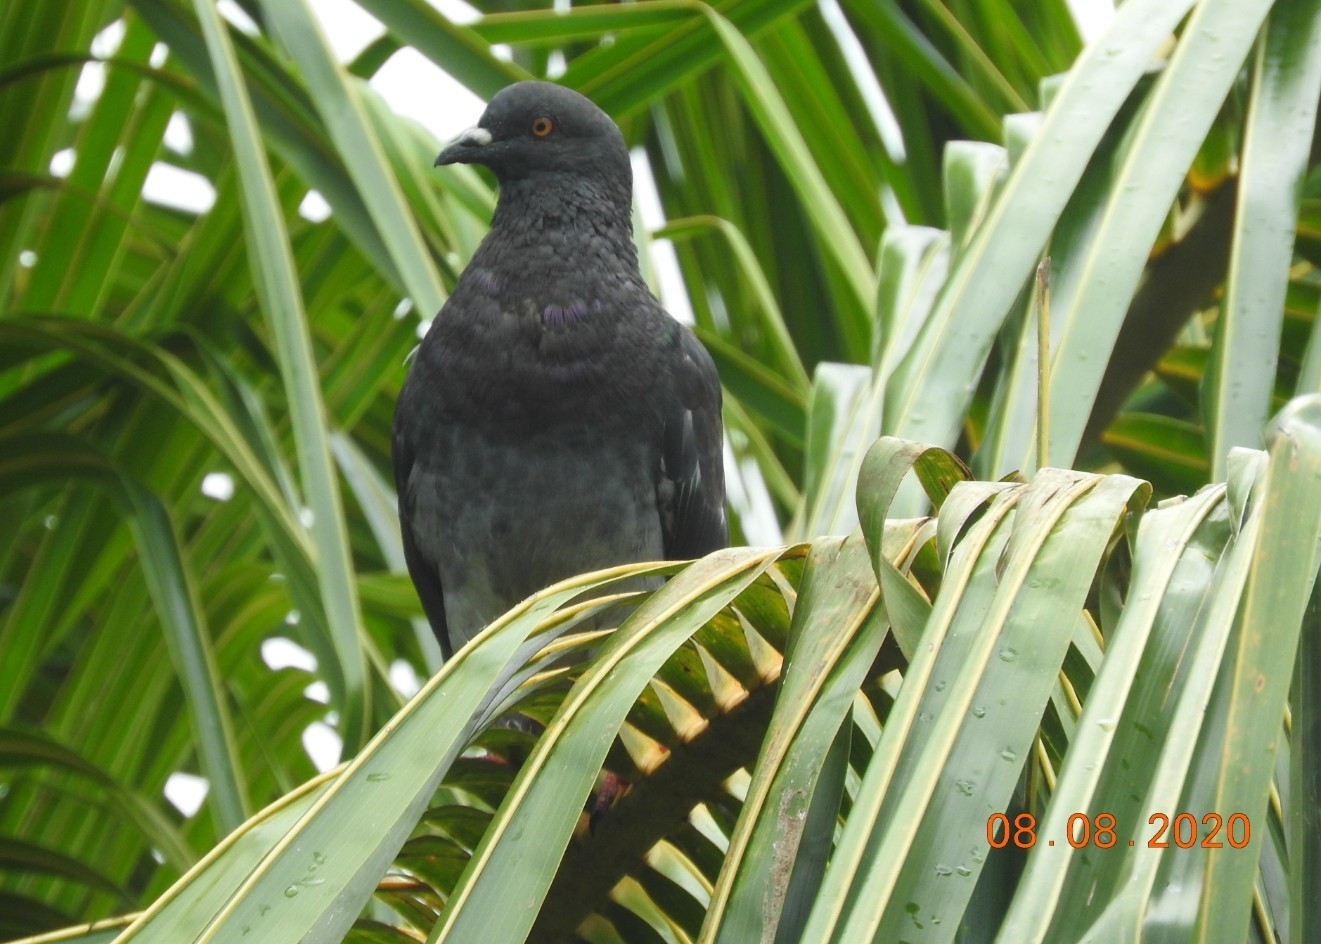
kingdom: Animalia
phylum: Chordata
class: Aves
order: Columbiformes
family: Columbidae
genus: Columba
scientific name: Columba livia
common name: Rock pigeon
